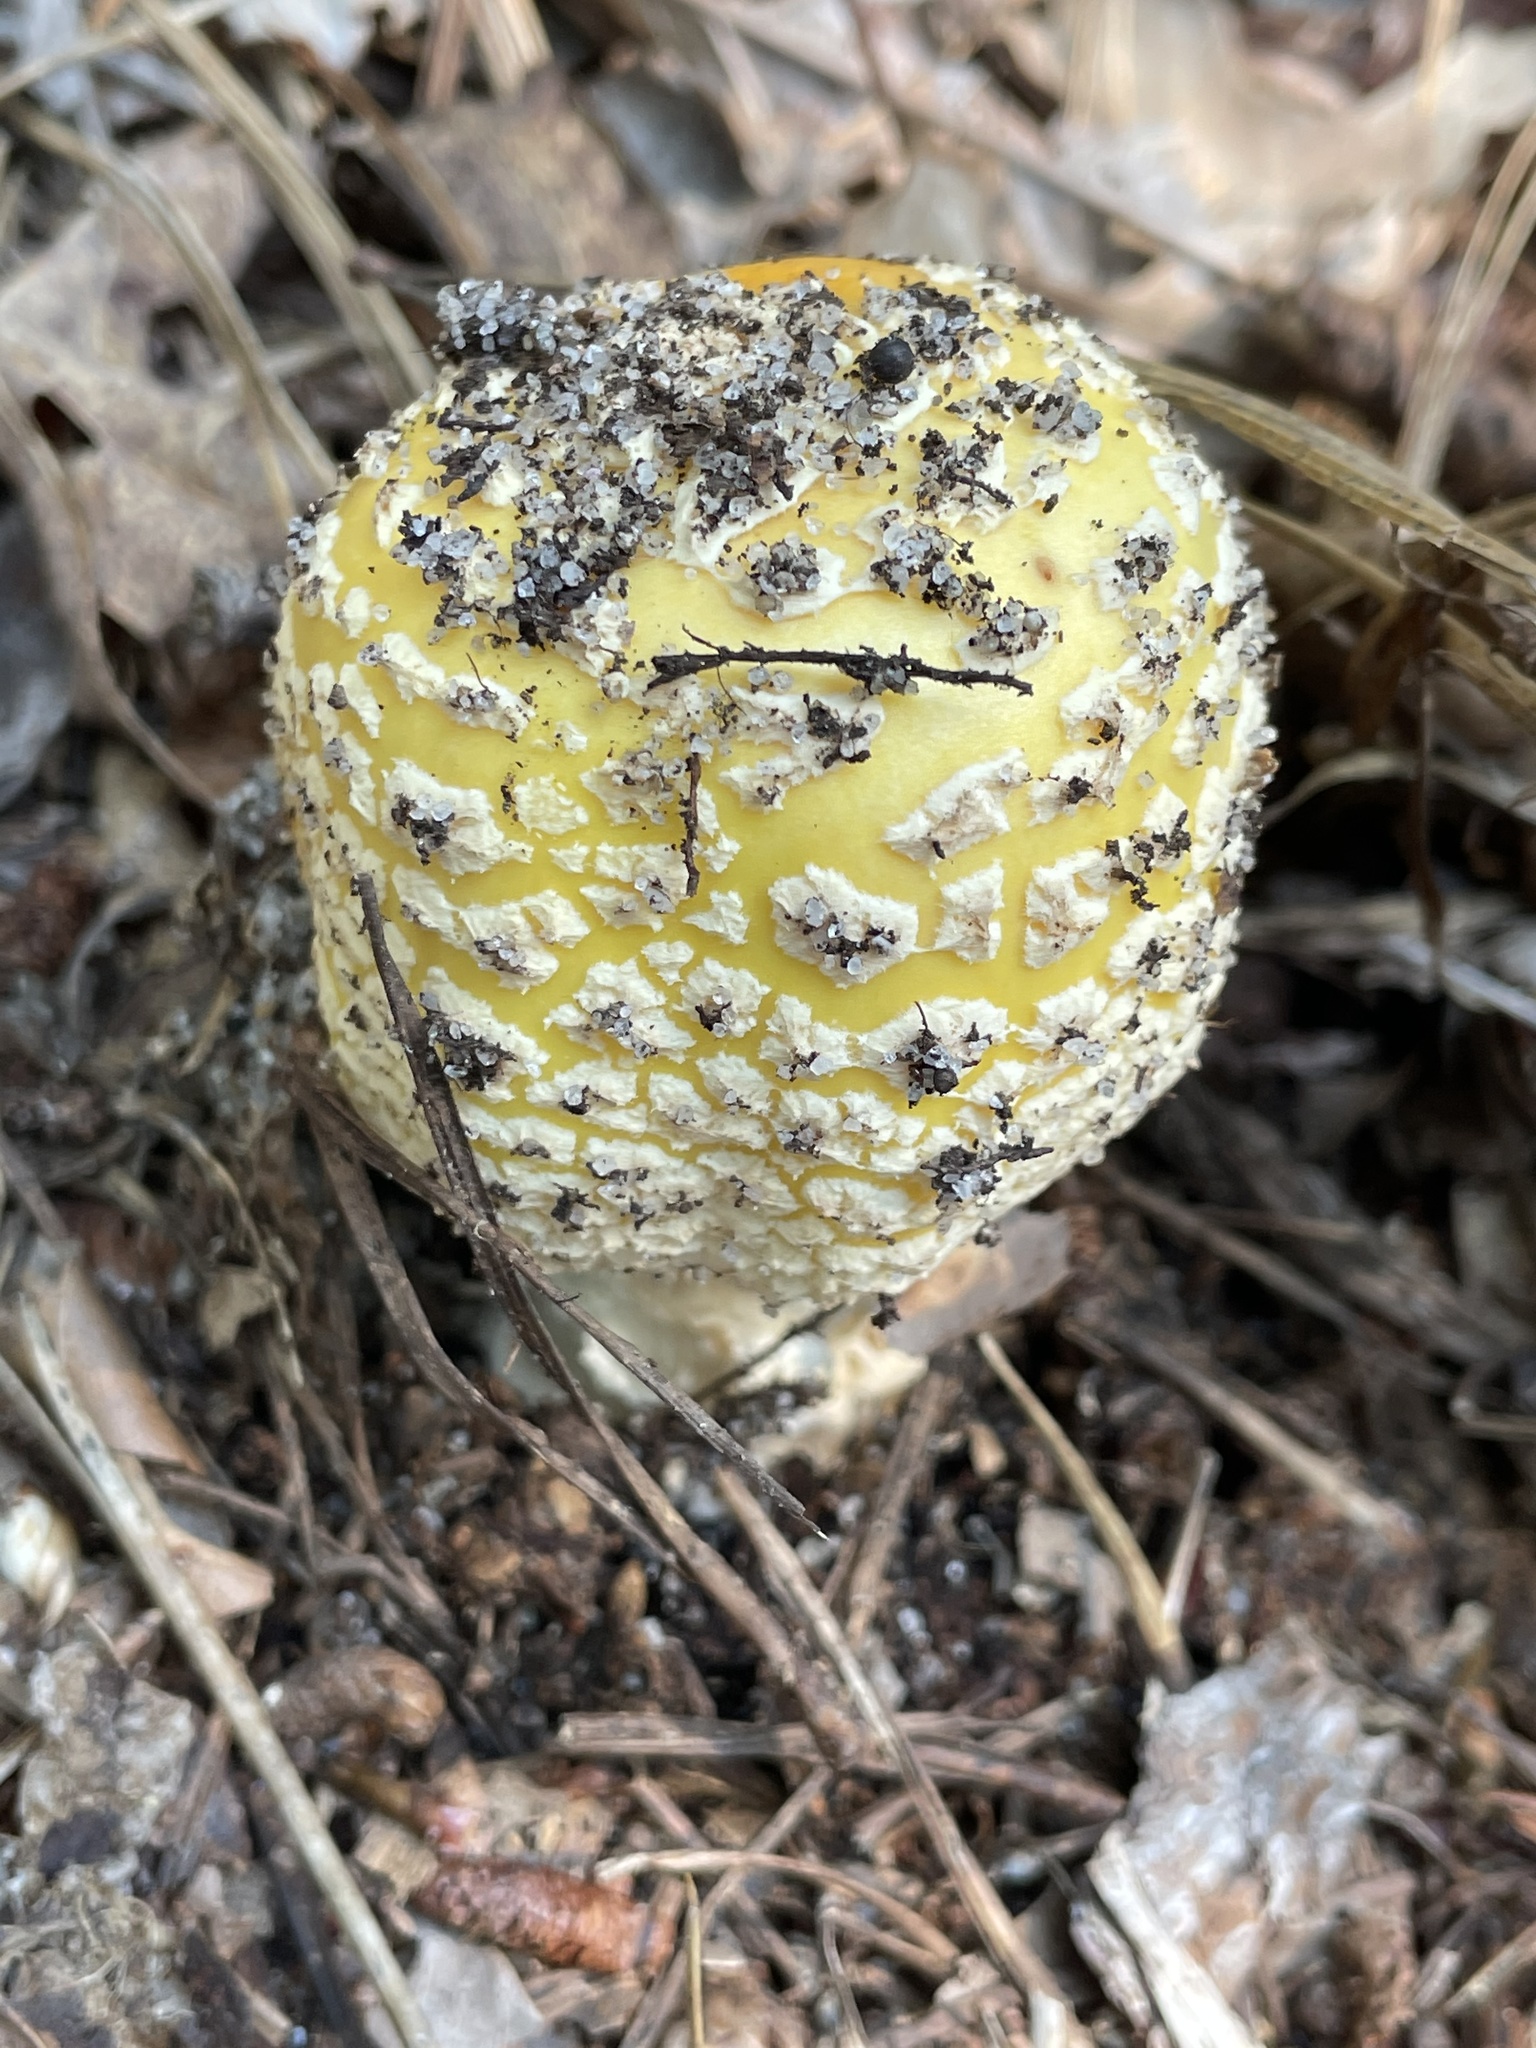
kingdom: Fungi
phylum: Basidiomycota
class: Agaricomycetes
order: Agaricales
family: Amanitaceae
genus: Amanita
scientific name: Amanita muscaria
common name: Fly agaric
